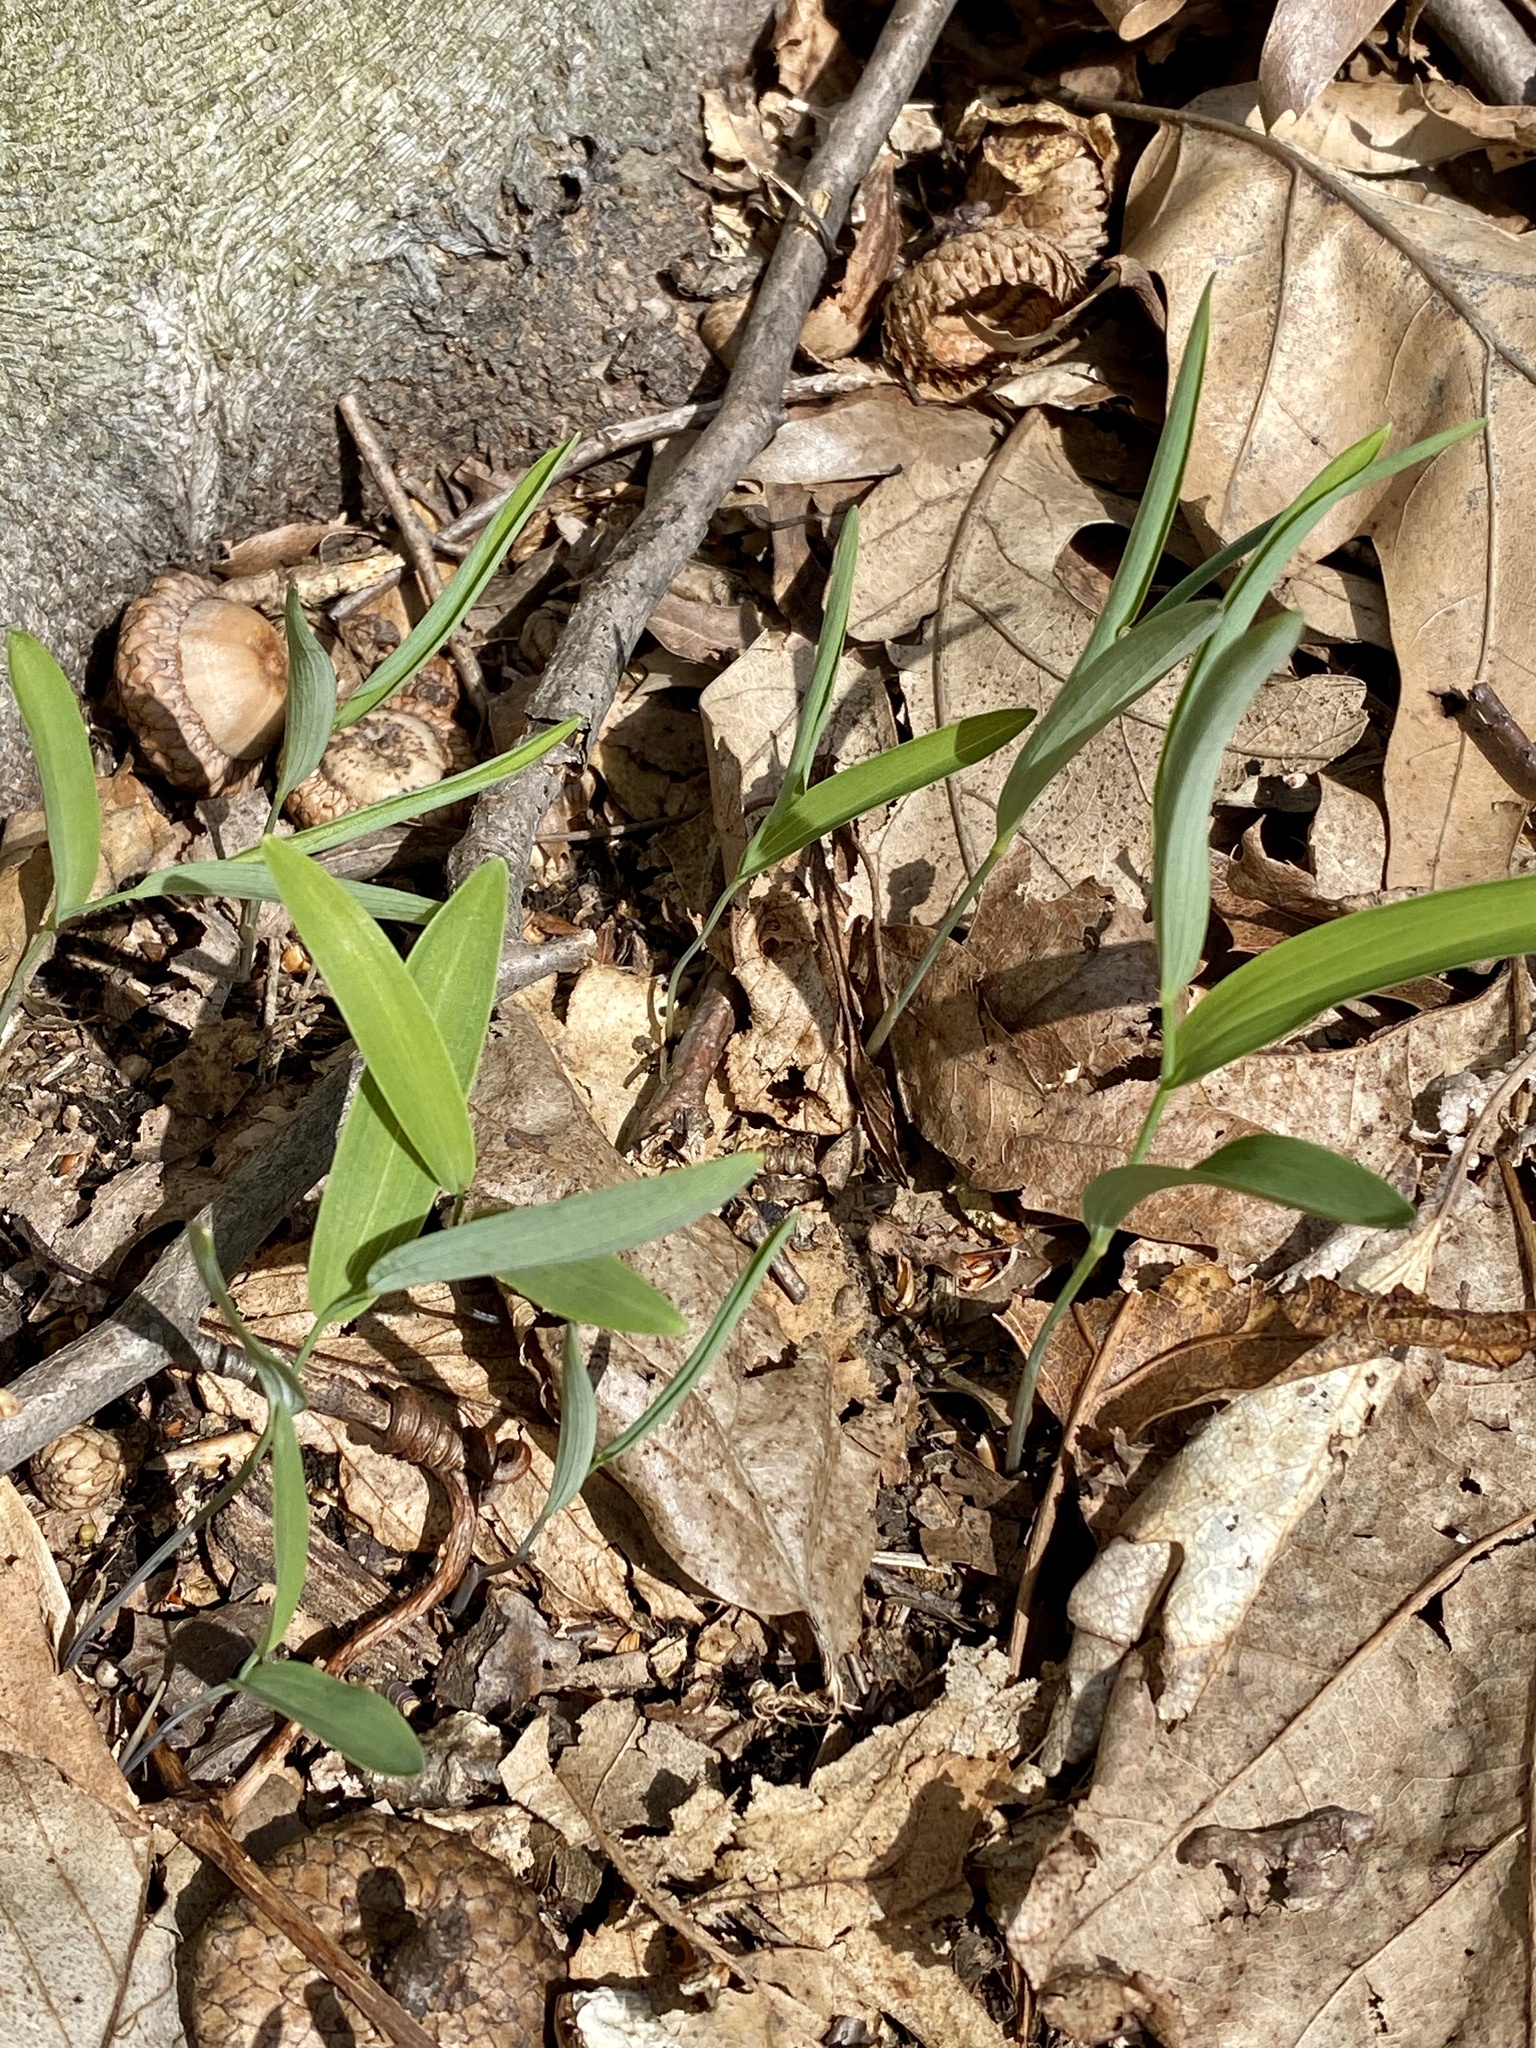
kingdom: Plantae
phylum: Tracheophyta
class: Liliopsida
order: Asparagales
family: Asparagaceae
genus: Polygonatum
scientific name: Polygonatum biflorum
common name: American solomon's-seal
